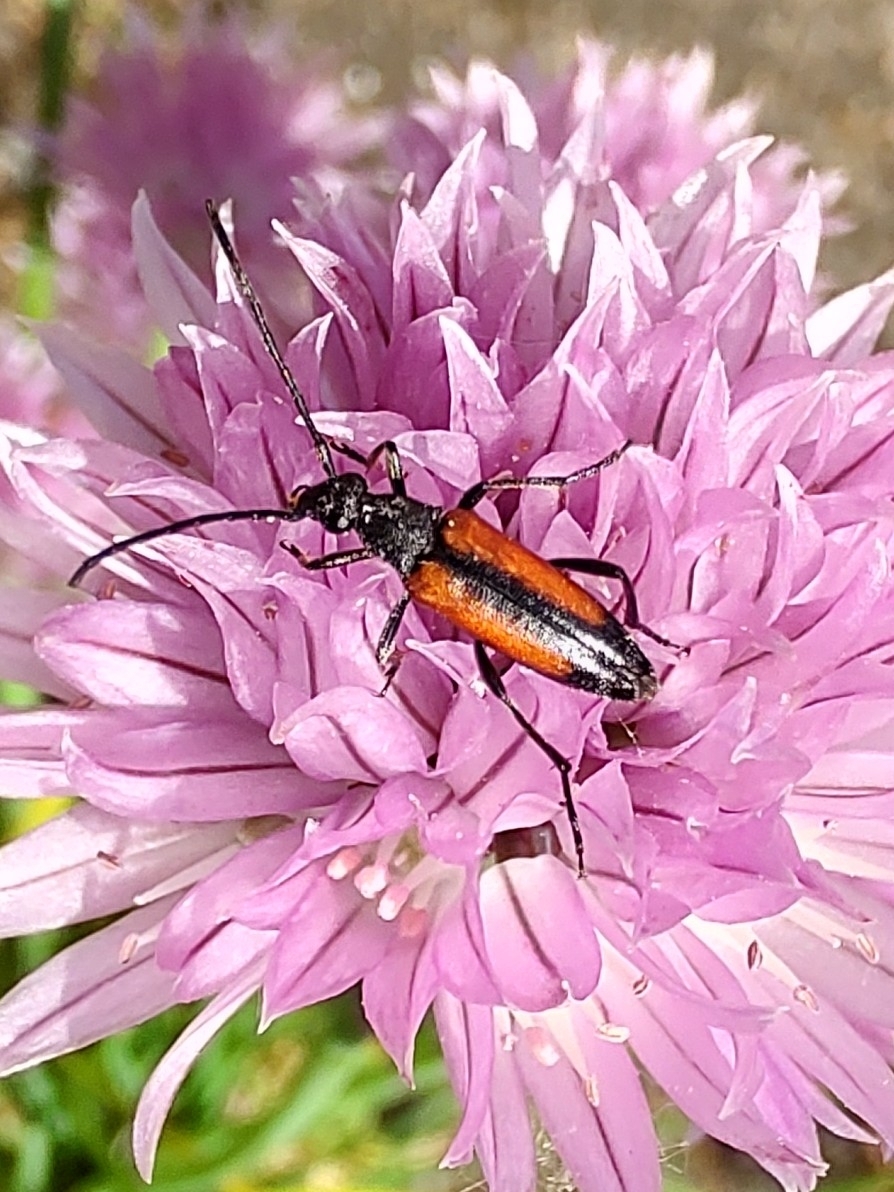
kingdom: Animalia
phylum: Arthropoda
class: Insecta
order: Coleoptera
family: Cerambycidae
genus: Stenurella
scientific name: Stenurella melanura
